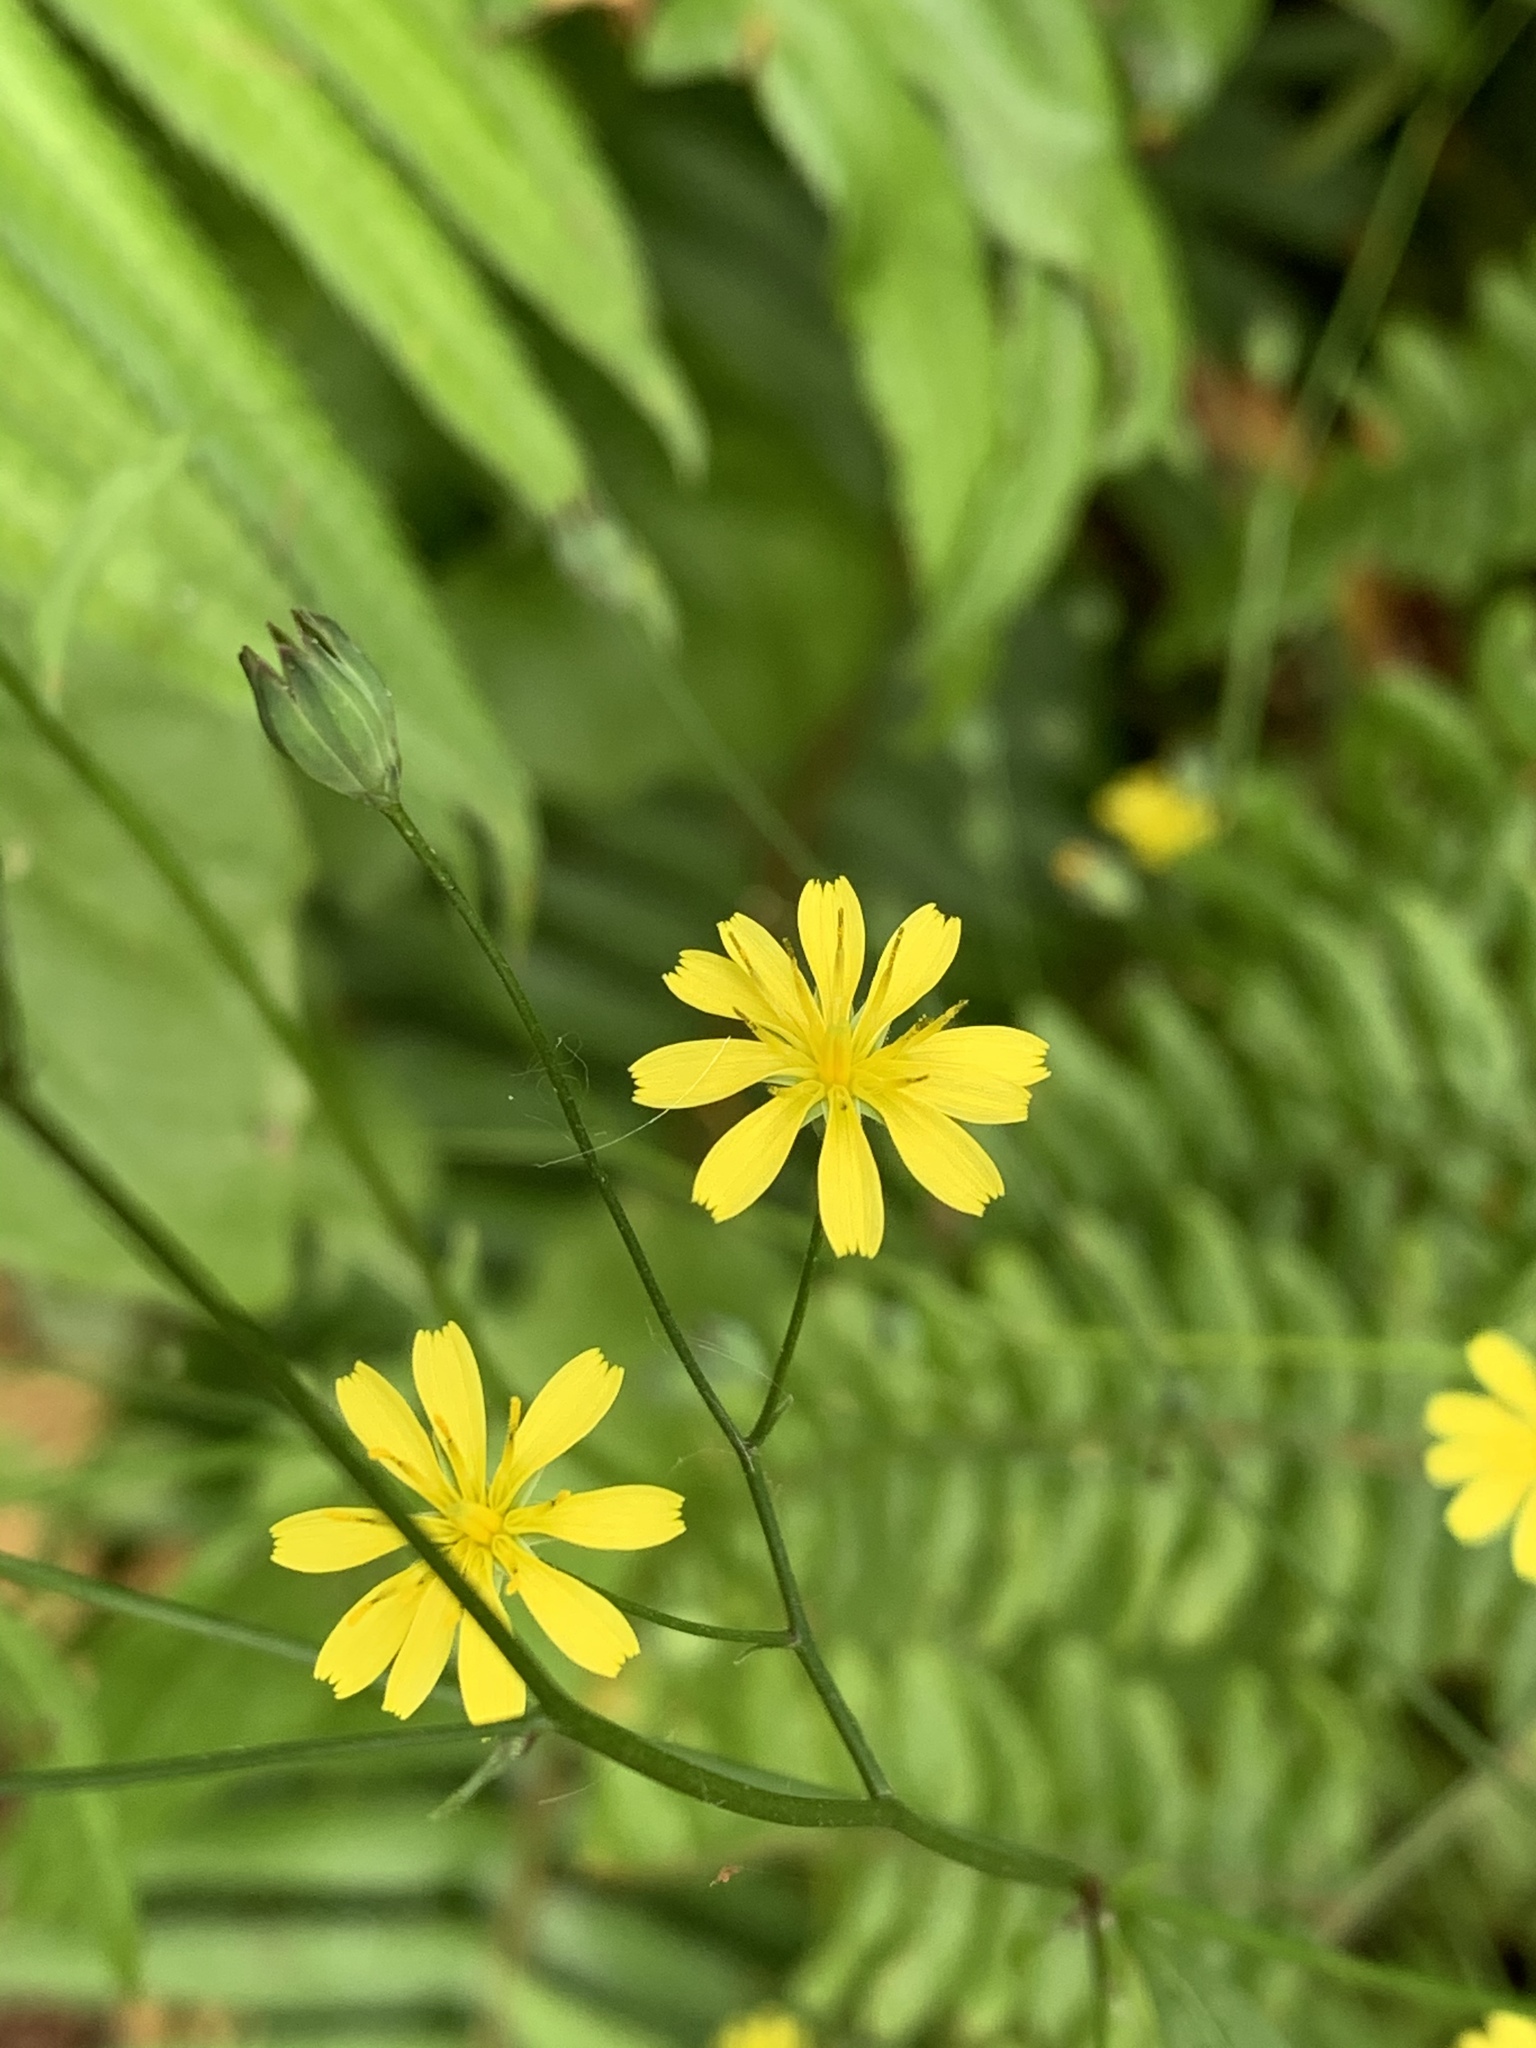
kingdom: Plantae
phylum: Tracheophyta
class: Magnoliopsida
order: Asterales
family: Asteraceae
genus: Lapsana
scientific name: Lapsana communis
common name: Nipplewort
